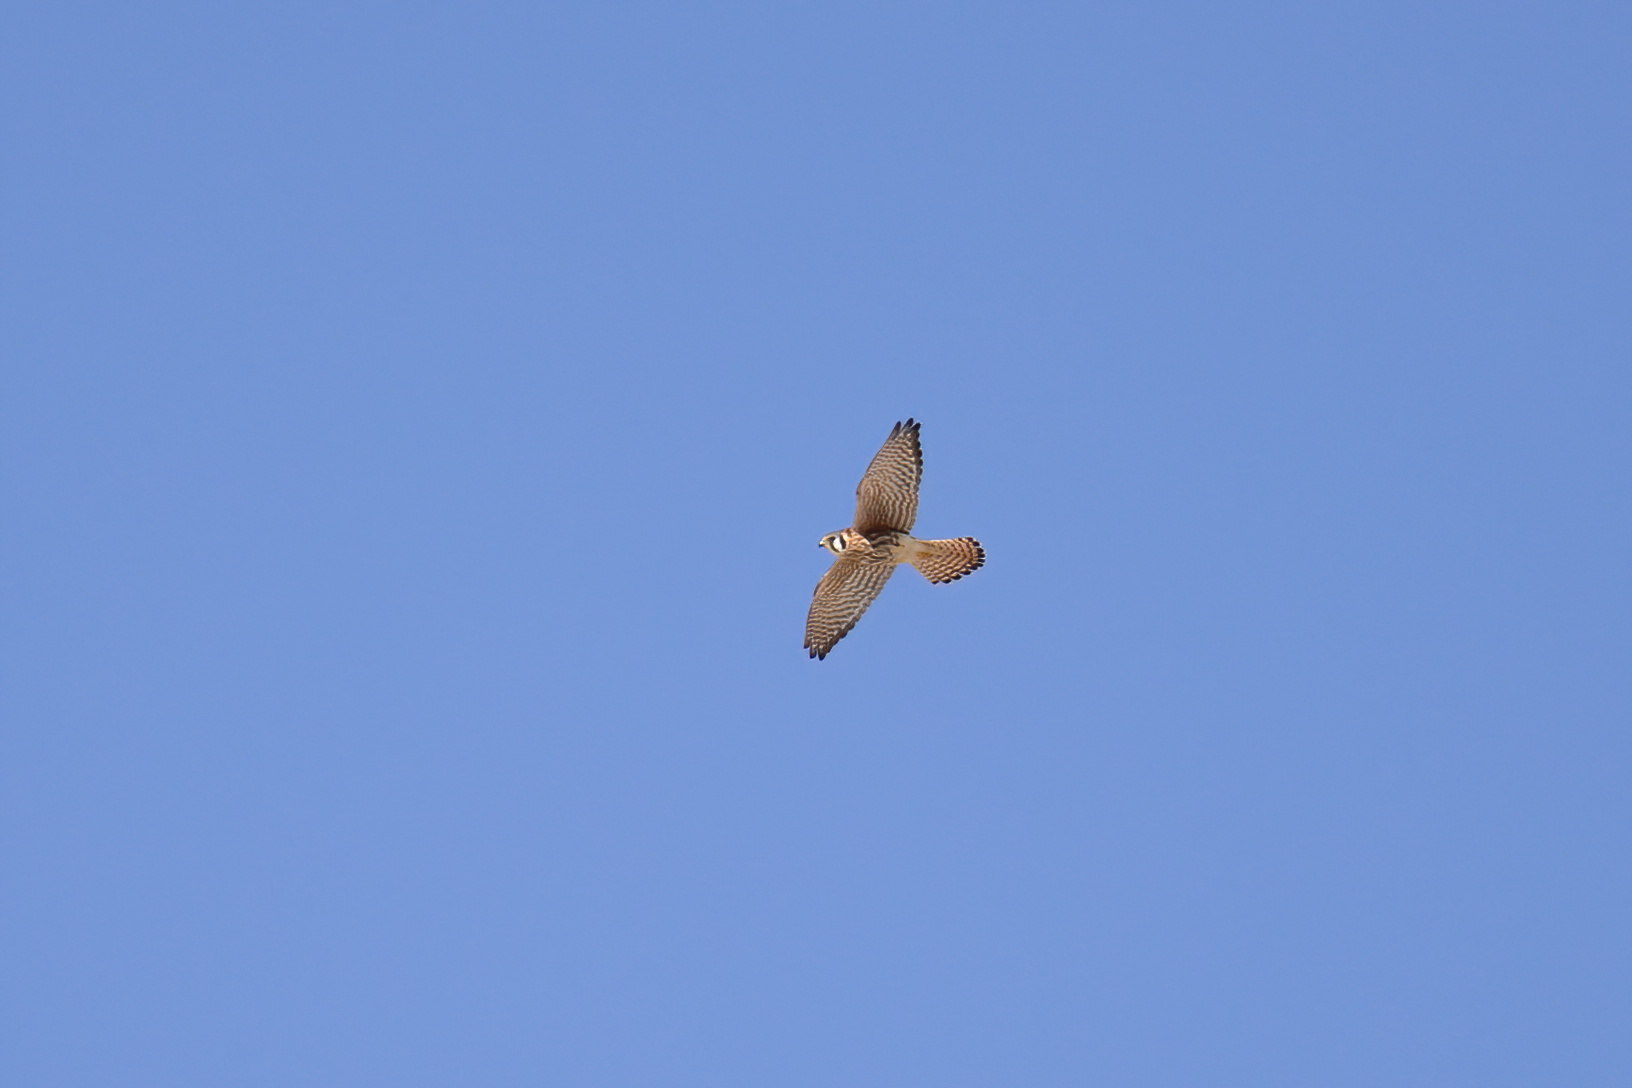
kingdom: Animalia
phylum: Chordata
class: Aves
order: Falconiformes
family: Falconidae
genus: Falco
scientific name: Falco sparverius
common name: American kestrel
